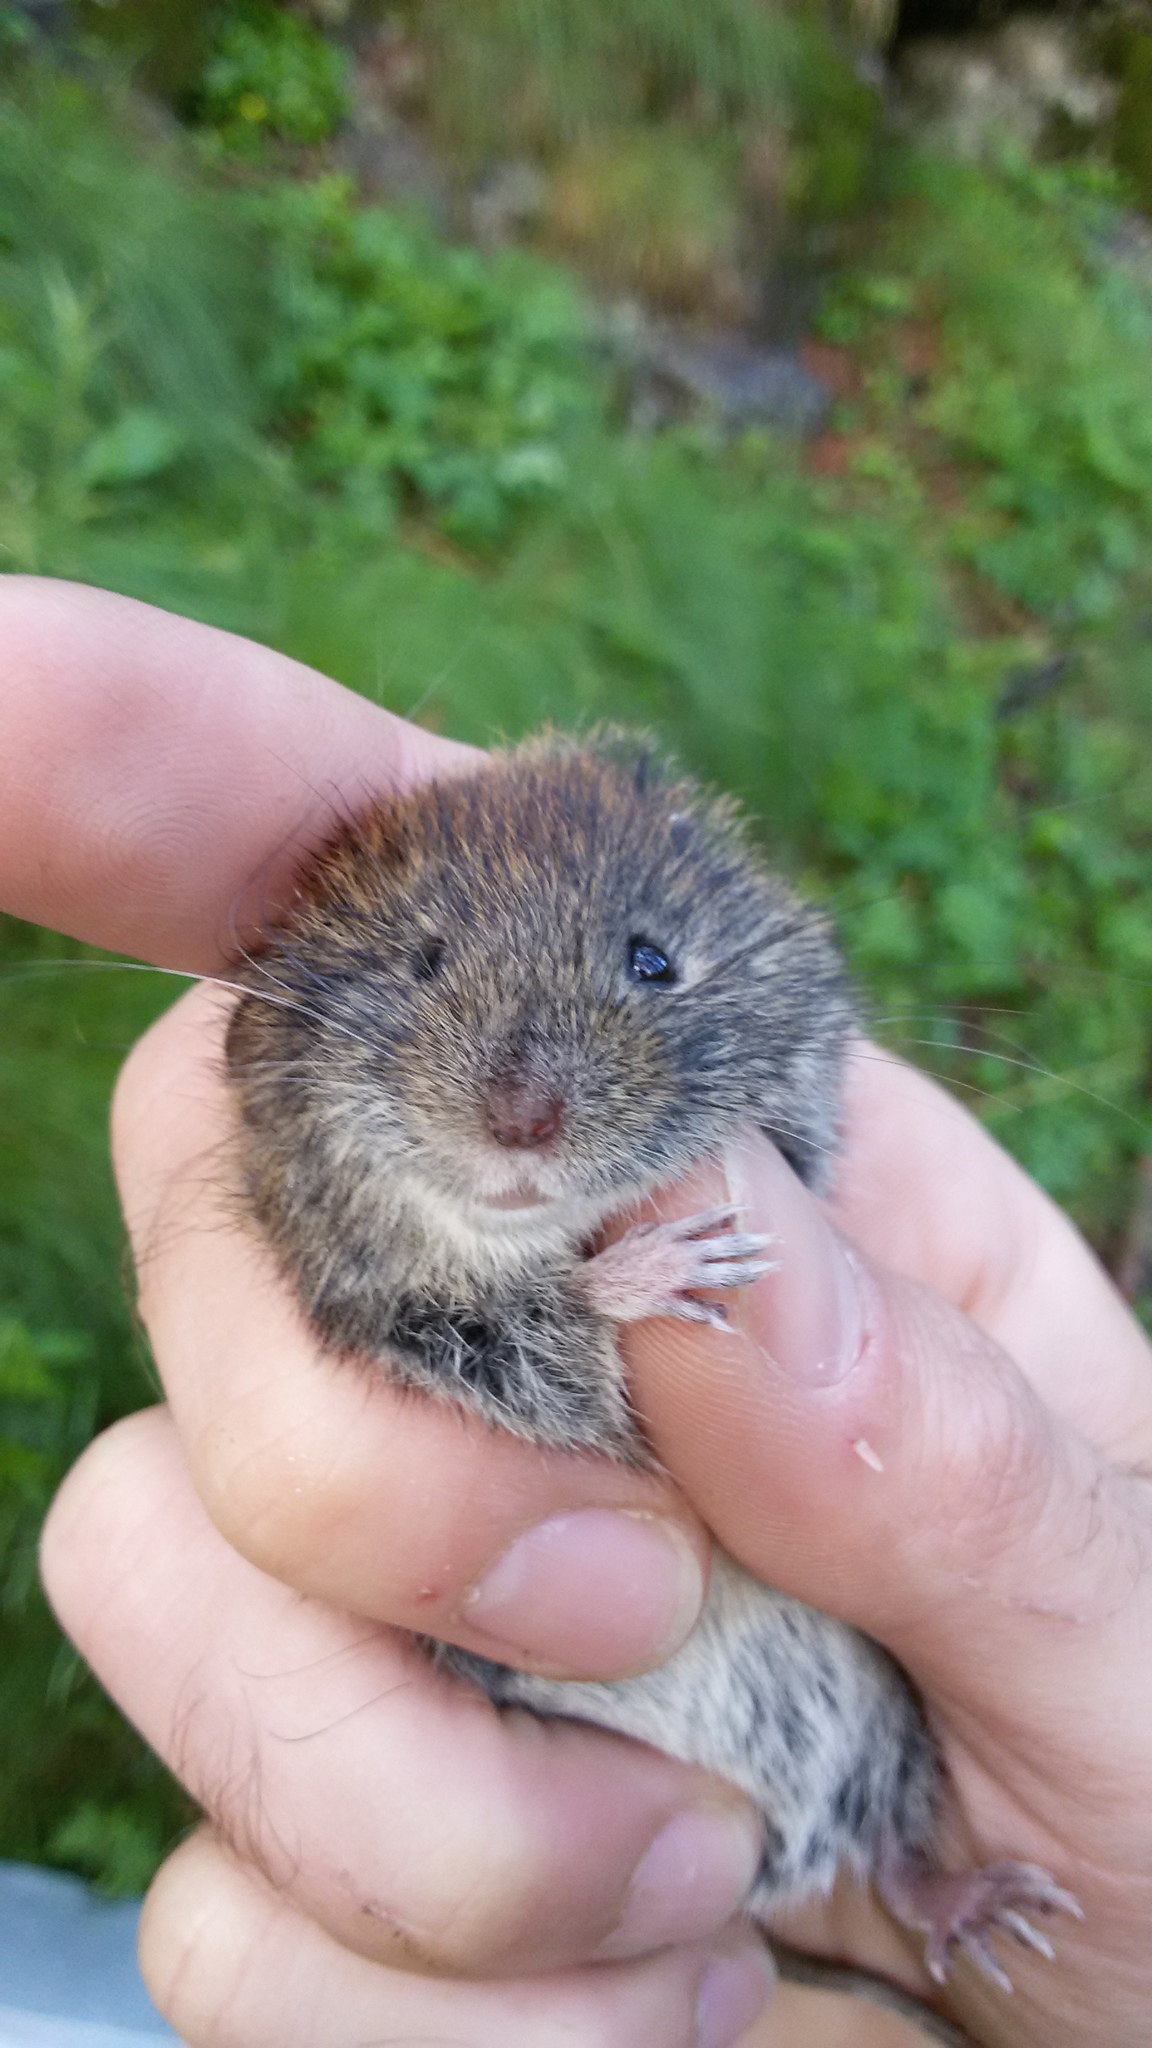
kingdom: Animalia
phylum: Chordata
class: Mammalia
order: Rodentia
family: Cricetidae
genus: Myodes
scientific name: Myodes glareolus
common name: Bank vole
